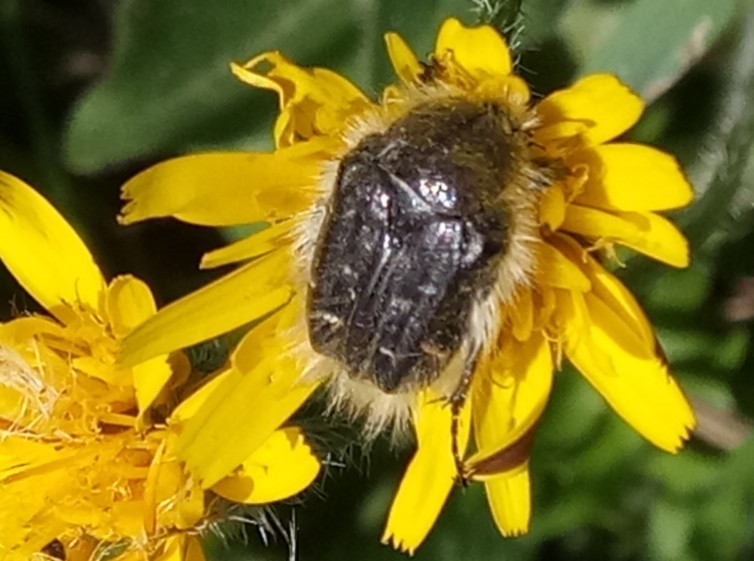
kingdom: Animalia
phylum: Arthropoda
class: Insecta
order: Coleoptera
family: Scarabaeidae
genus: Tropinota
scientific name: Tropinota squalida
